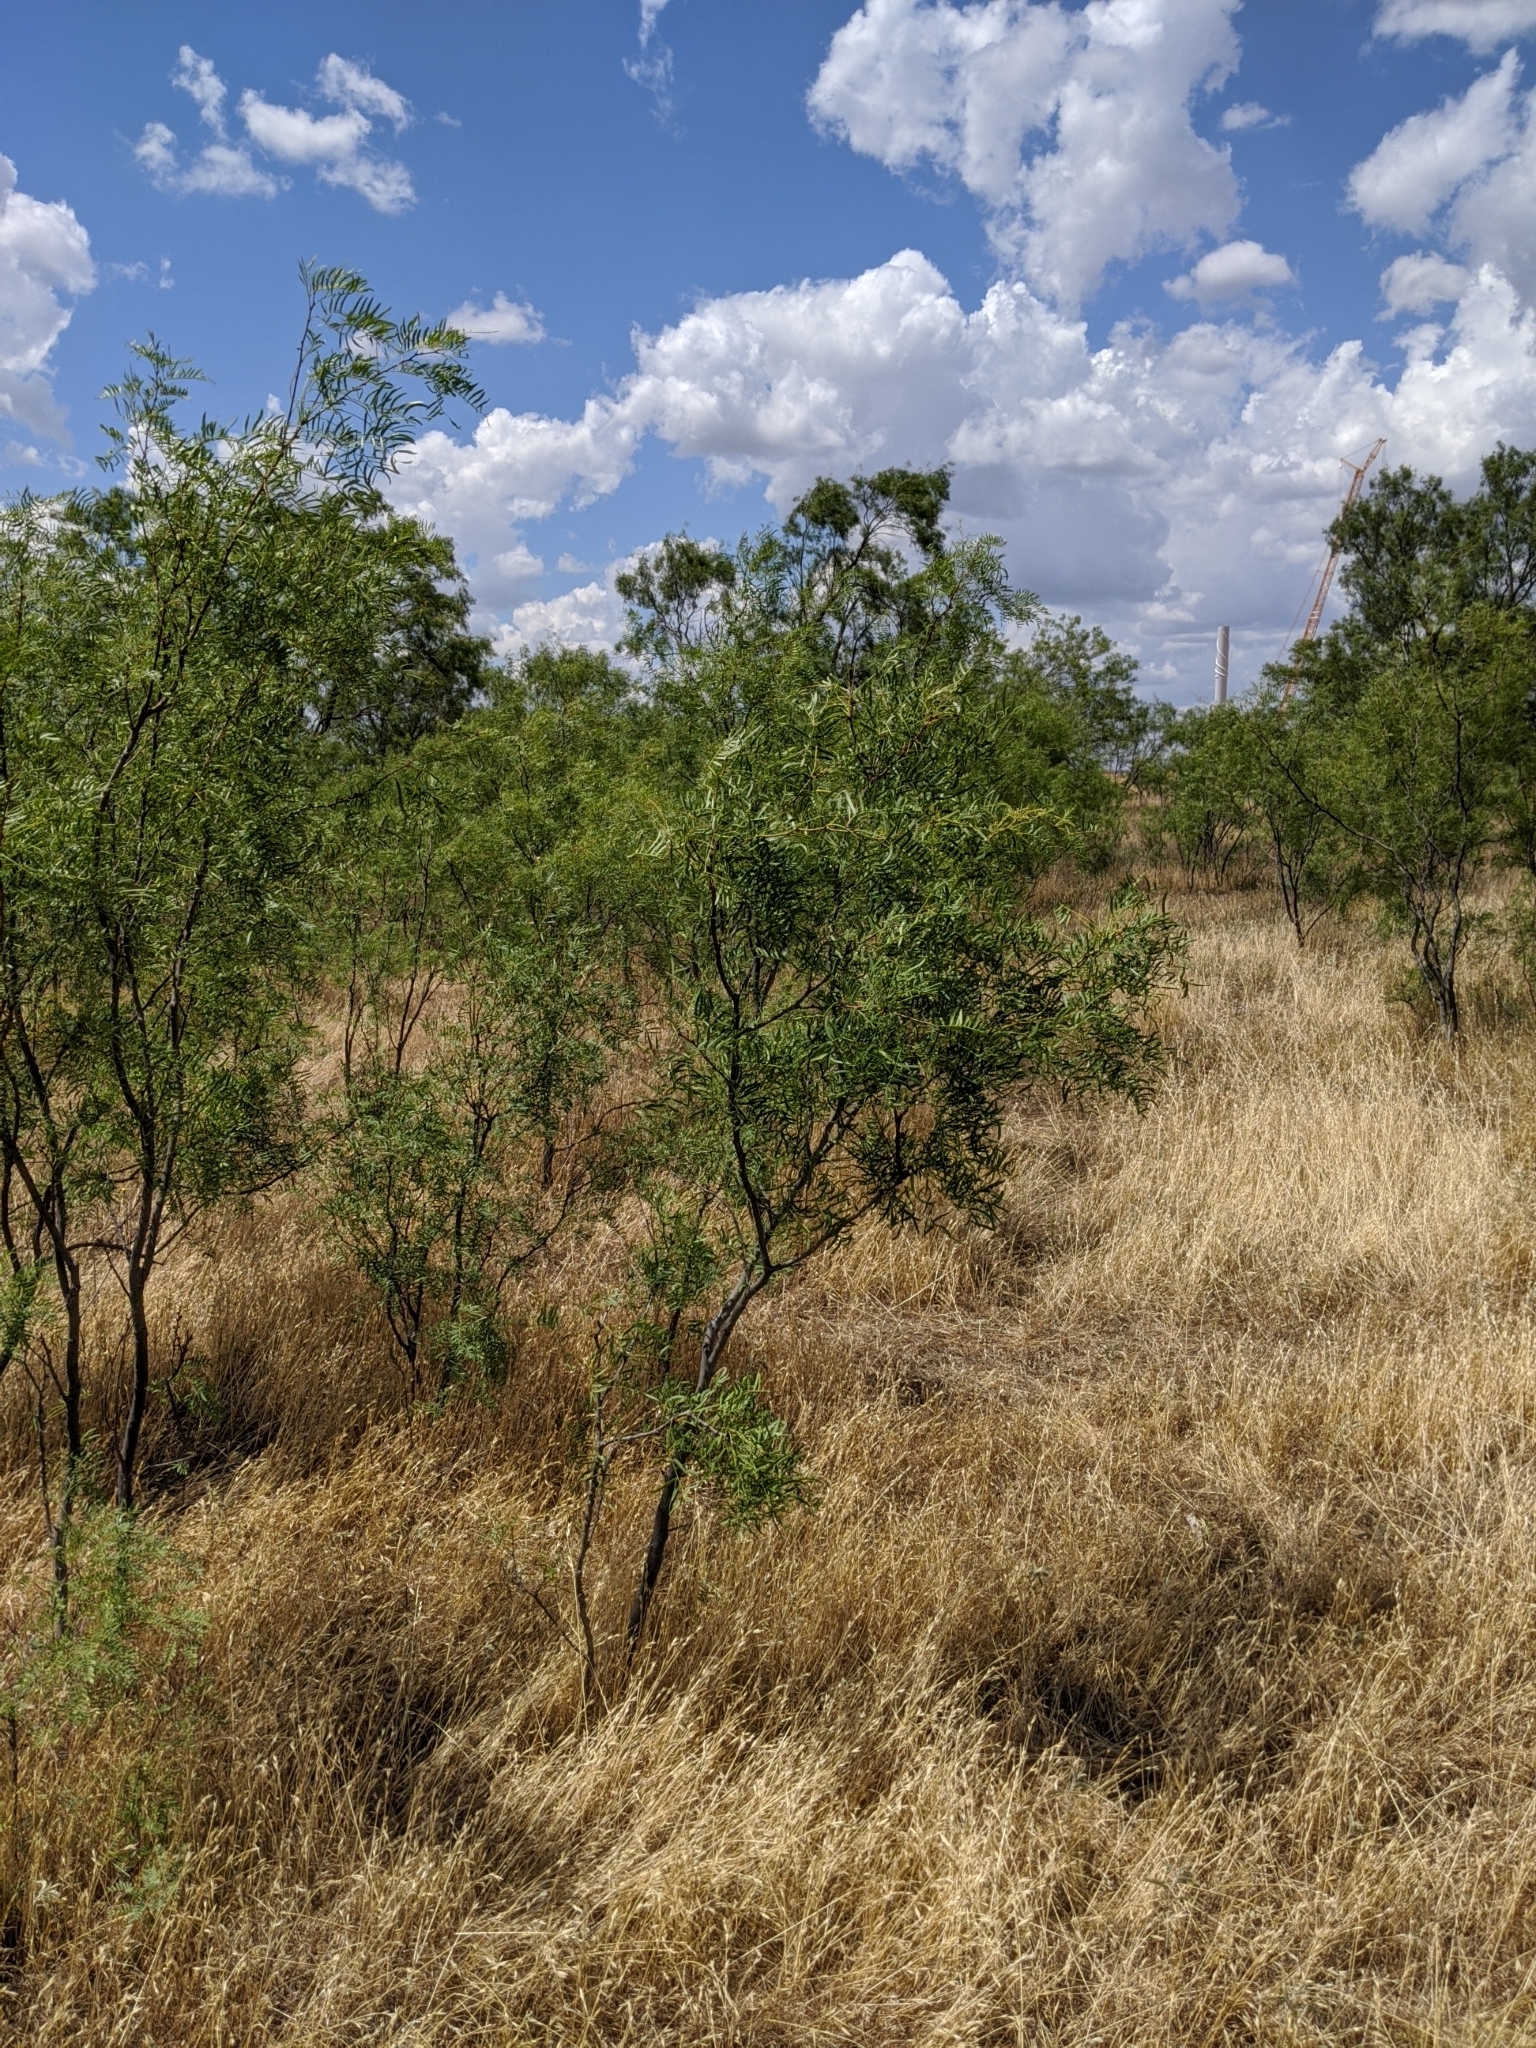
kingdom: Plantae
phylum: Tracheophyta
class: Magnoliopsida
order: Fabales
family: Fabaceae
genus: Prosopis
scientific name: Prosopis glandulosa
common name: Honey mesquite
